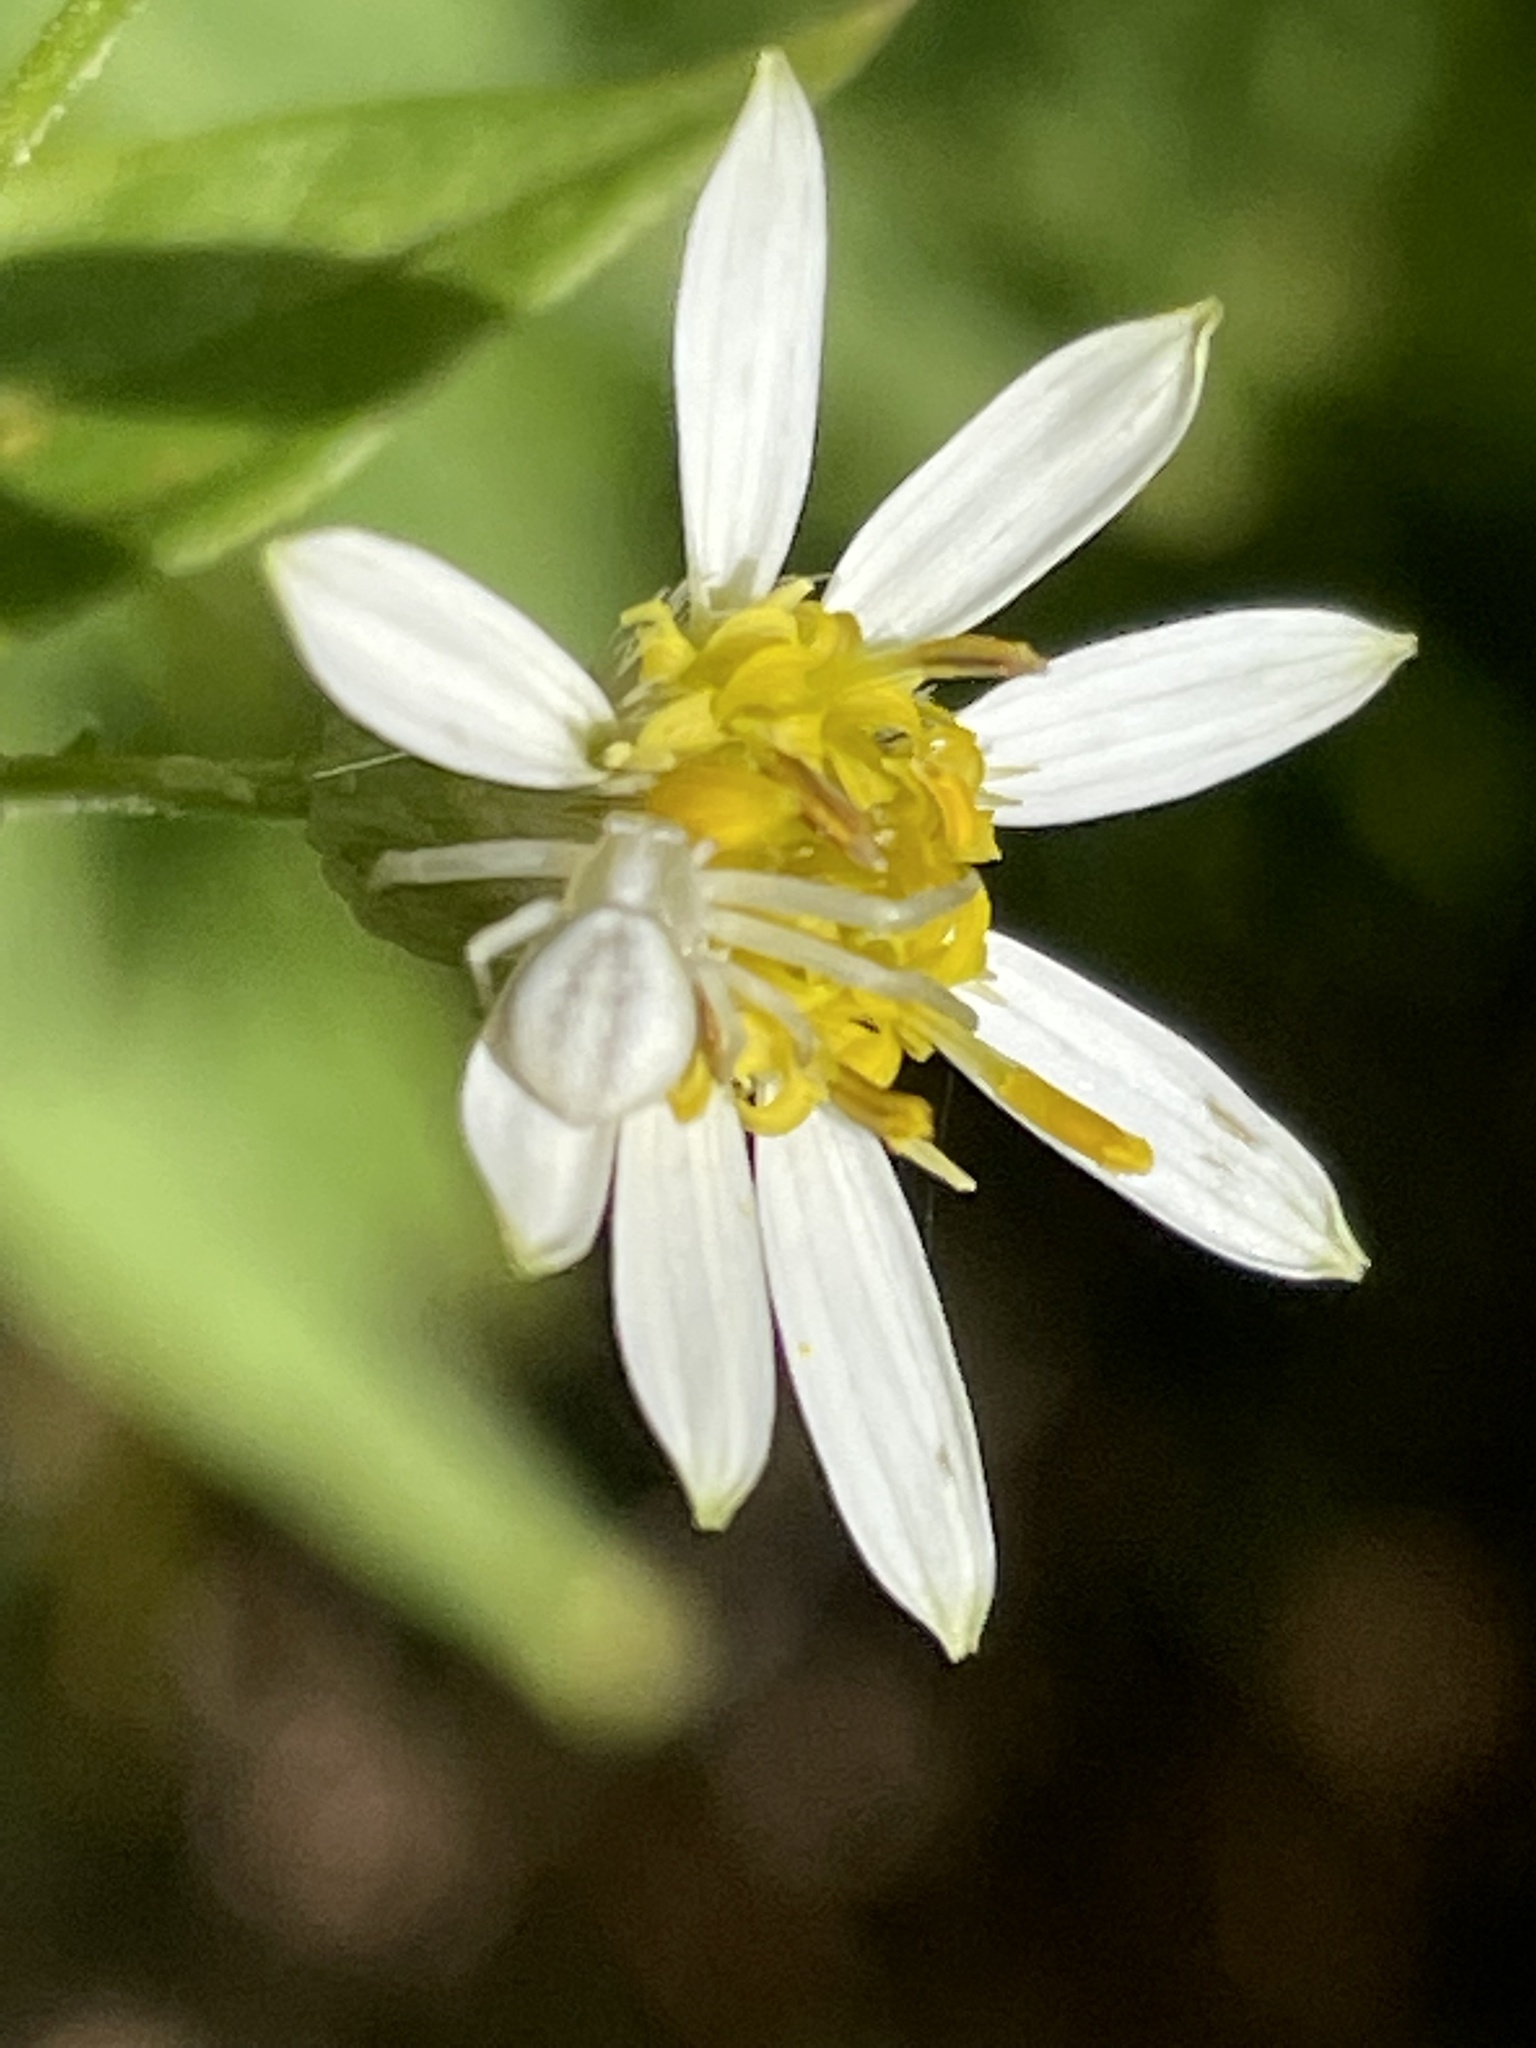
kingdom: Animalia
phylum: Arthropoda
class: Arachnida
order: Araneae
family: Thomisidae
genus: Misumena
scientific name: Misumena vatia
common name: Goldenrod crab spider
